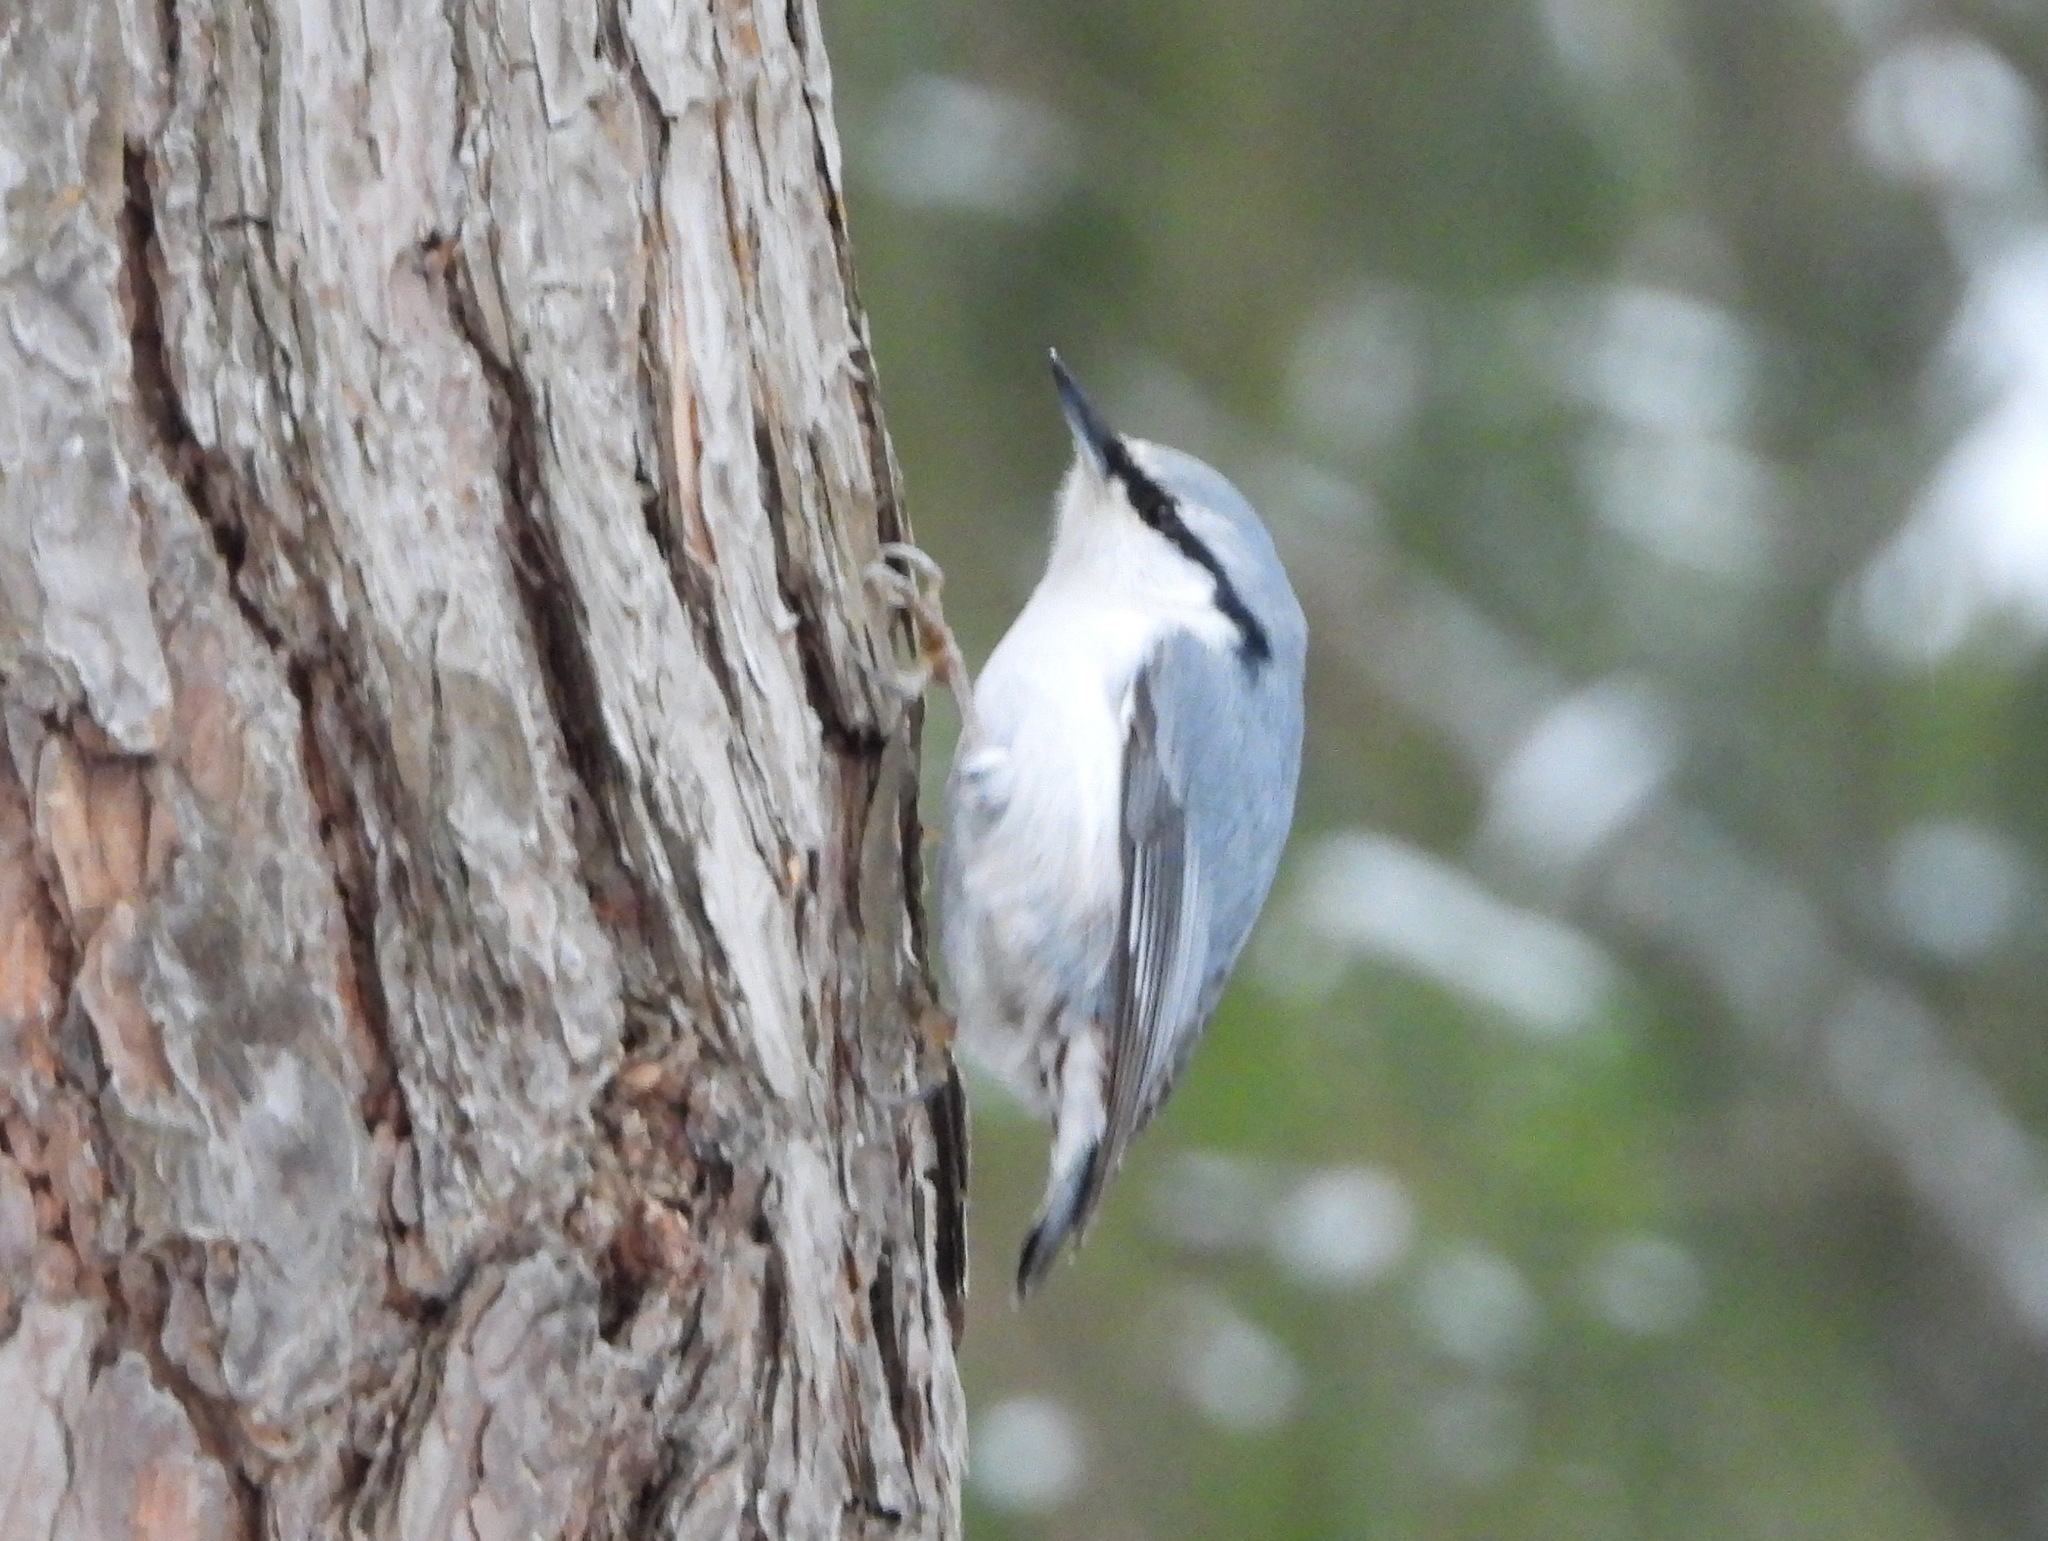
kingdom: Animalia
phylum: Chordata
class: Aves
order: Passeriformes
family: Sittidae
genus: Sitta
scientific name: Sitta europaea
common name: Eurasian nuthatch
